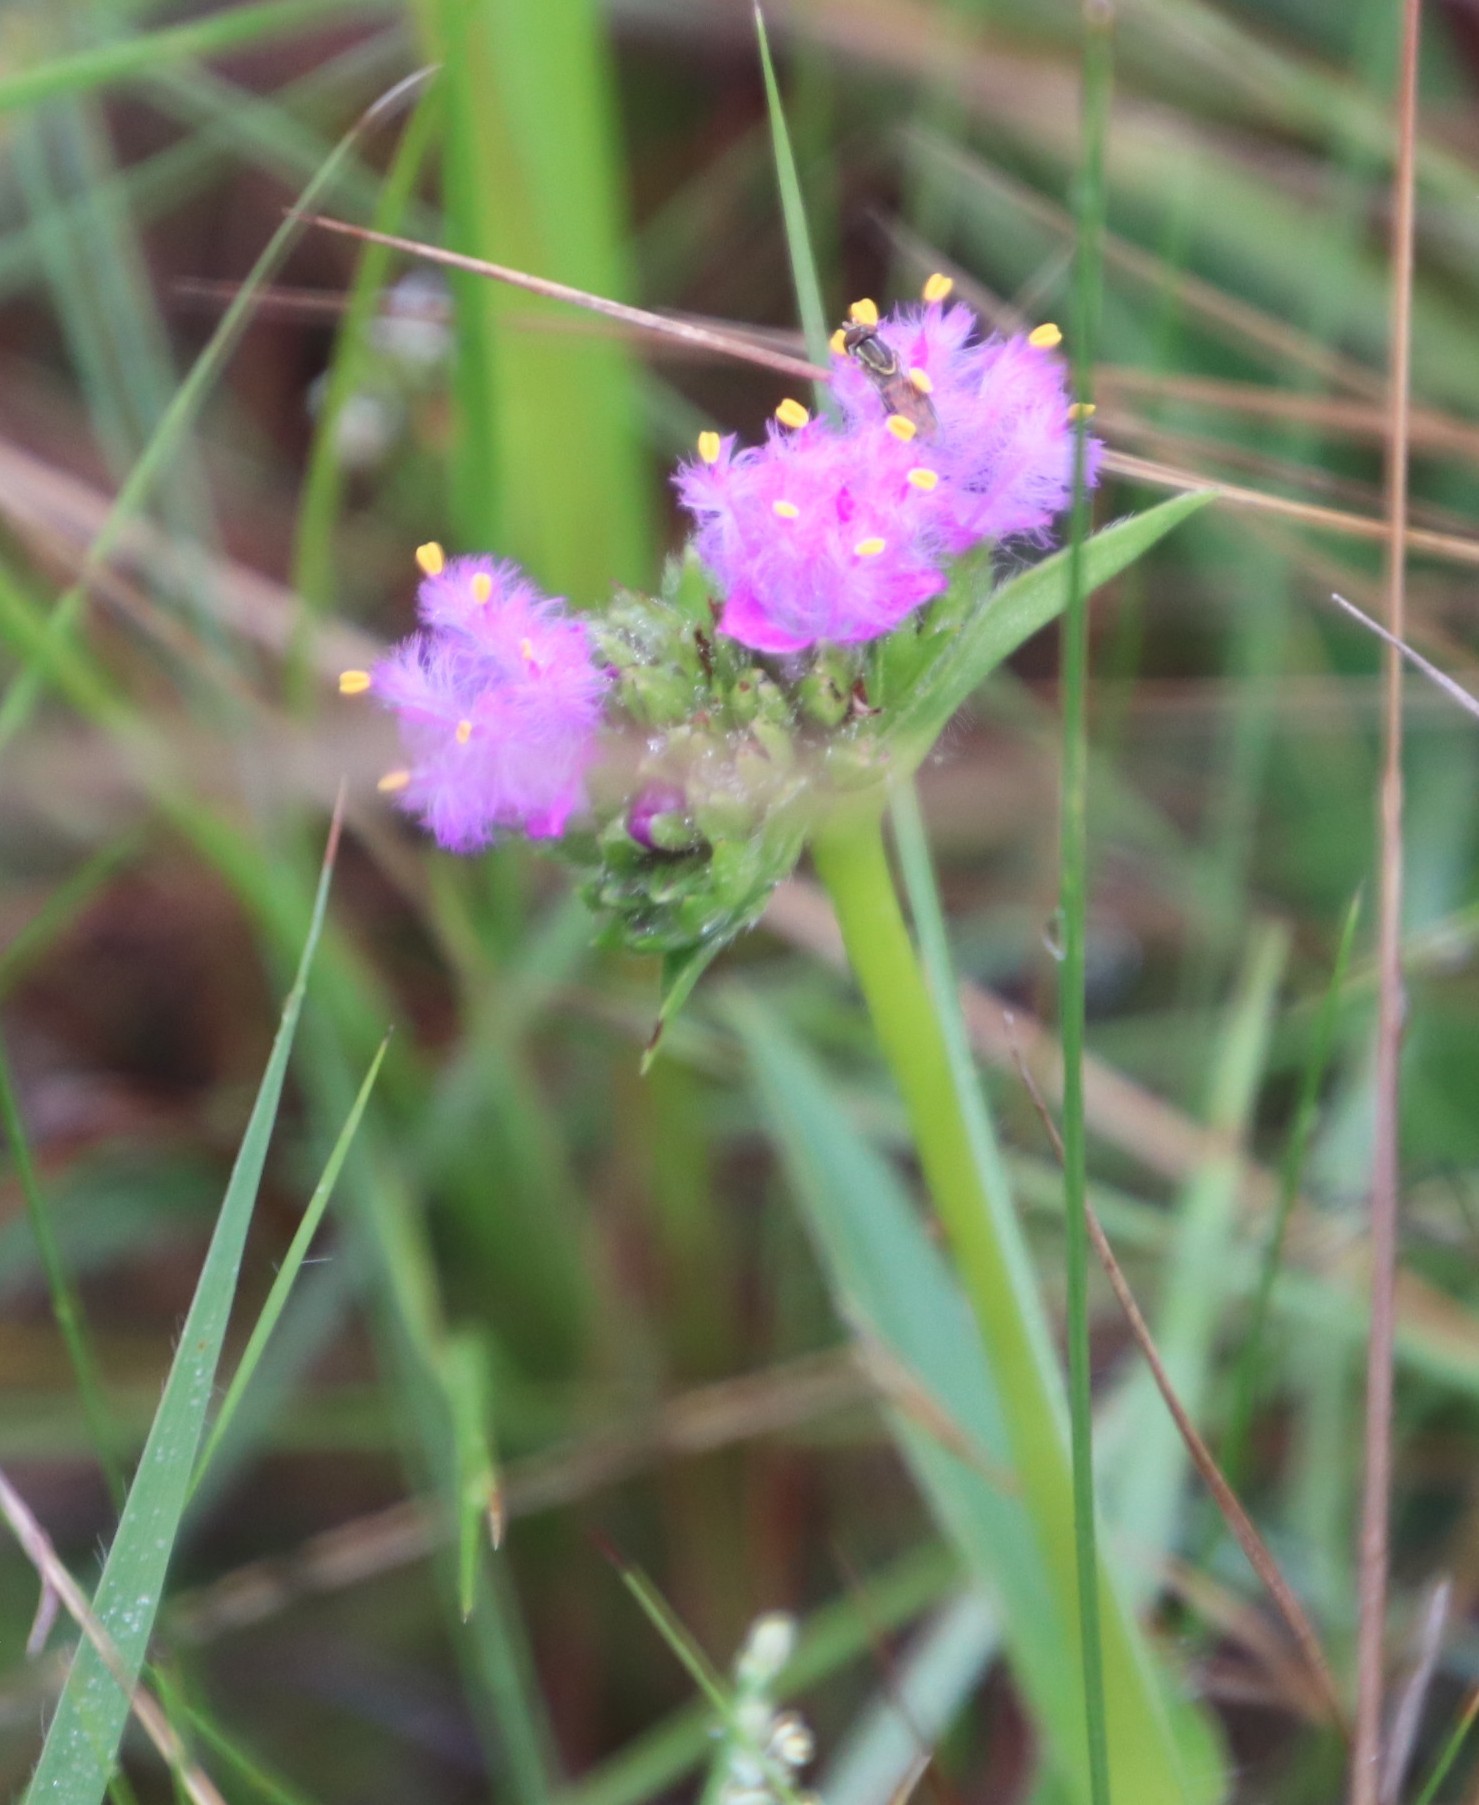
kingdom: Plantae
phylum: Tracheophyta
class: Liliopsida
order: Commelinales
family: Commelinaceae
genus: Cyanotis
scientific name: Cyanotis speciosa
